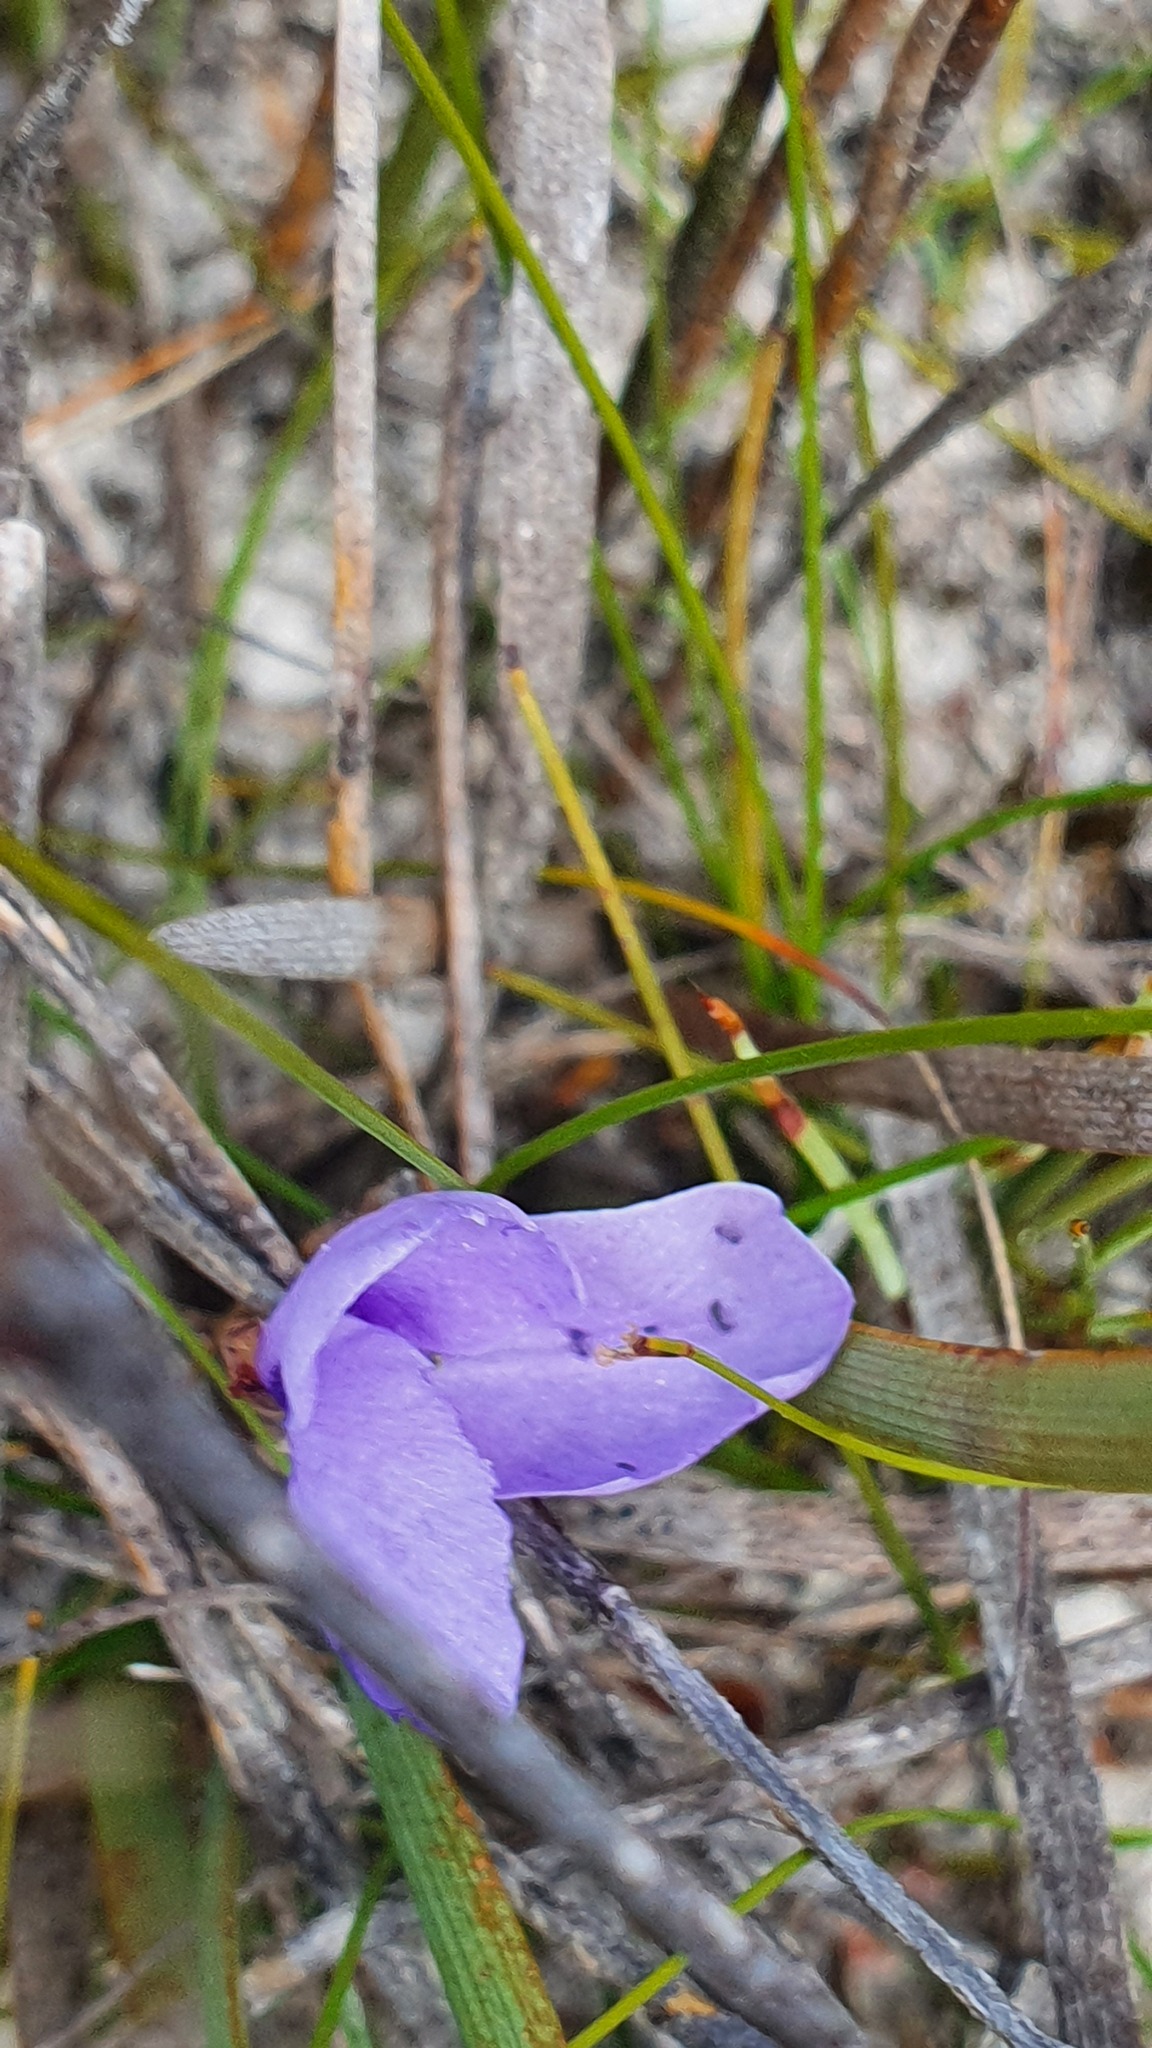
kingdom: Plantae
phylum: Tracheophyta
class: Liliopsida
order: Asparagales
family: Iridaceae
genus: Patersonia
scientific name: Patersonia fragilis
